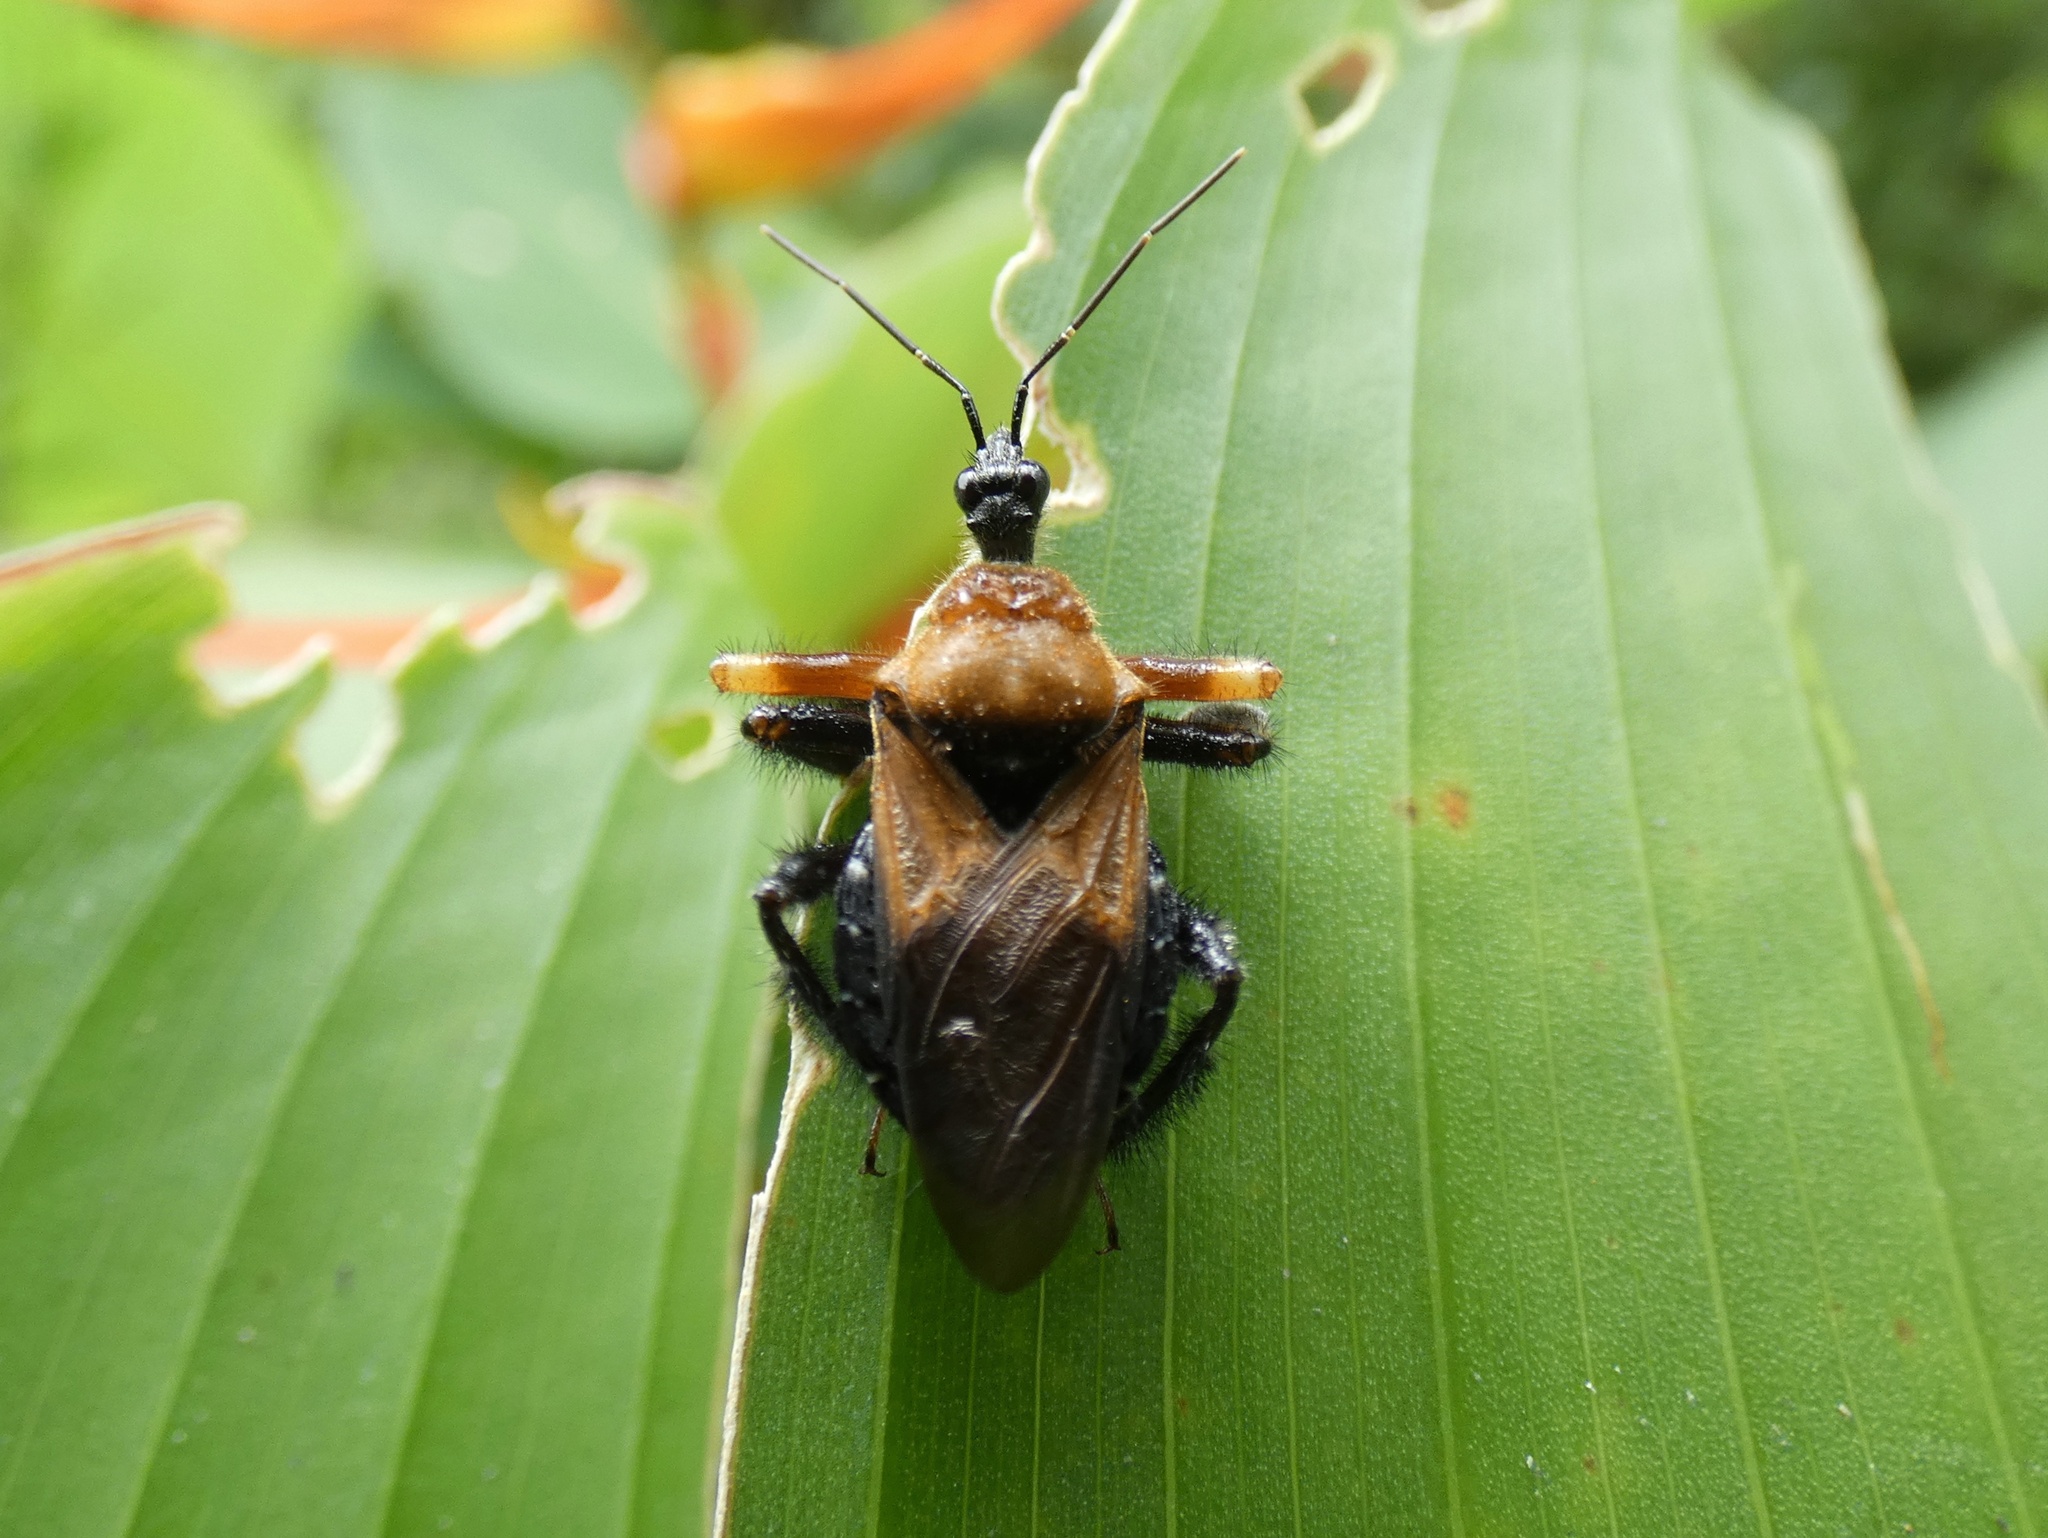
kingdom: Animalia
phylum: Arthropoda
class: Insecta
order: Hemiptera
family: Reduviidae
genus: Apiomerus
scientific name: Apiomerus emarginatus
